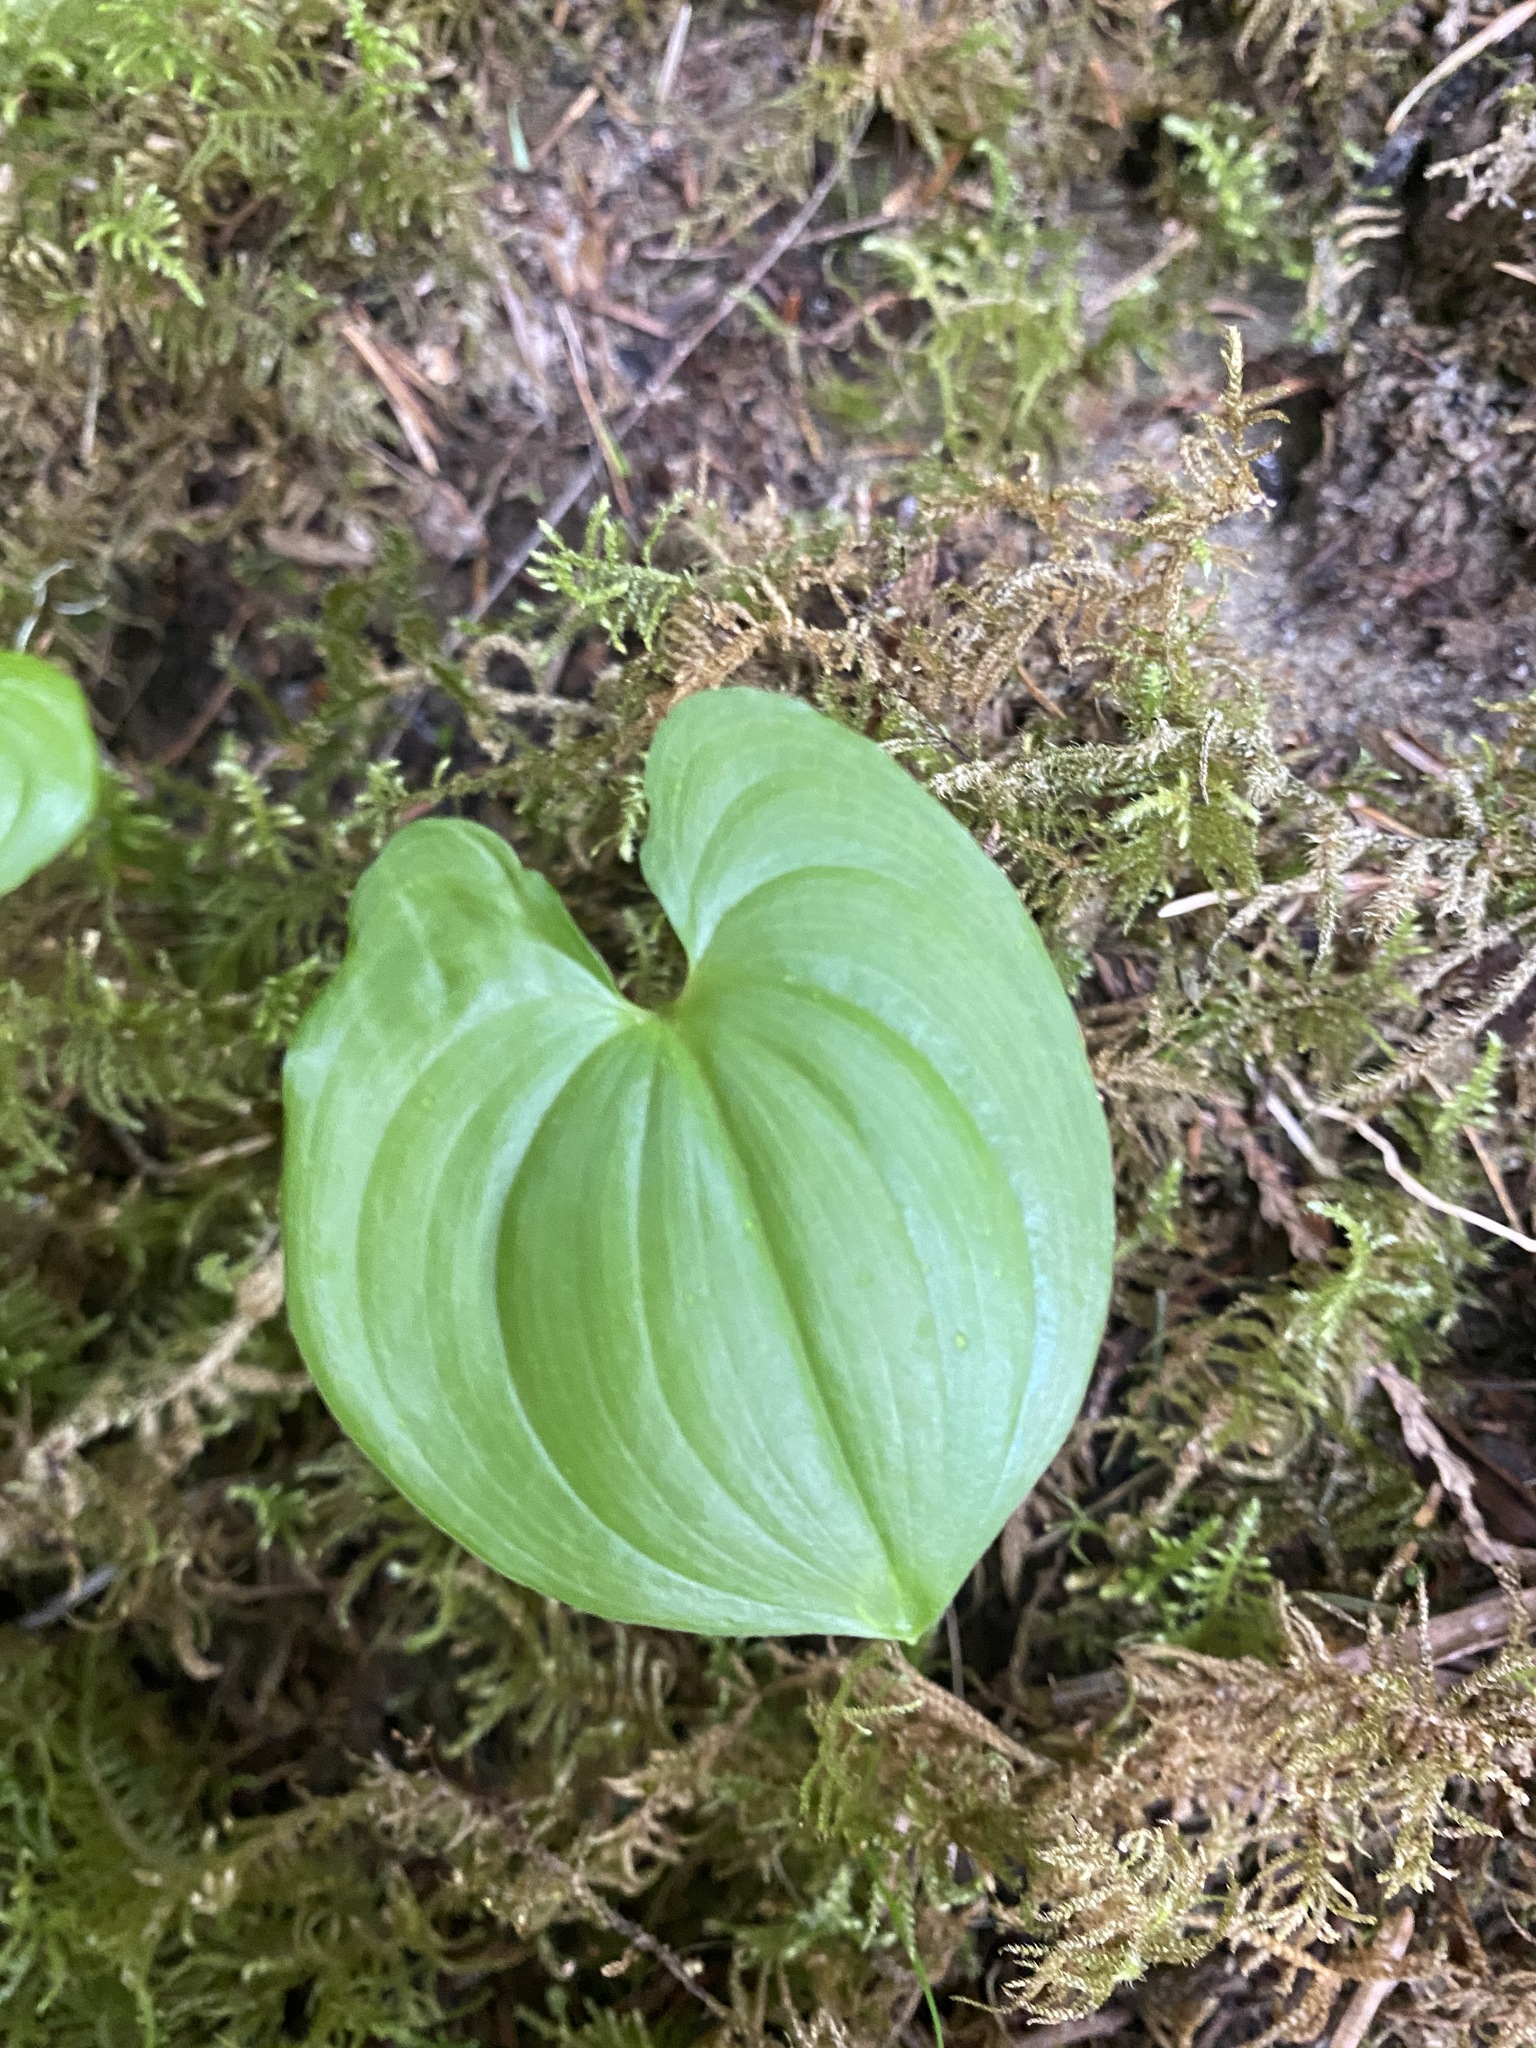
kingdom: Plantae
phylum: Tracheophyta
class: Liliopsida
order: Asparagales
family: Asparagaceae
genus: Maianthemum
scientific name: Maianthemum dilatatum
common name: False lily-of-the-valley
